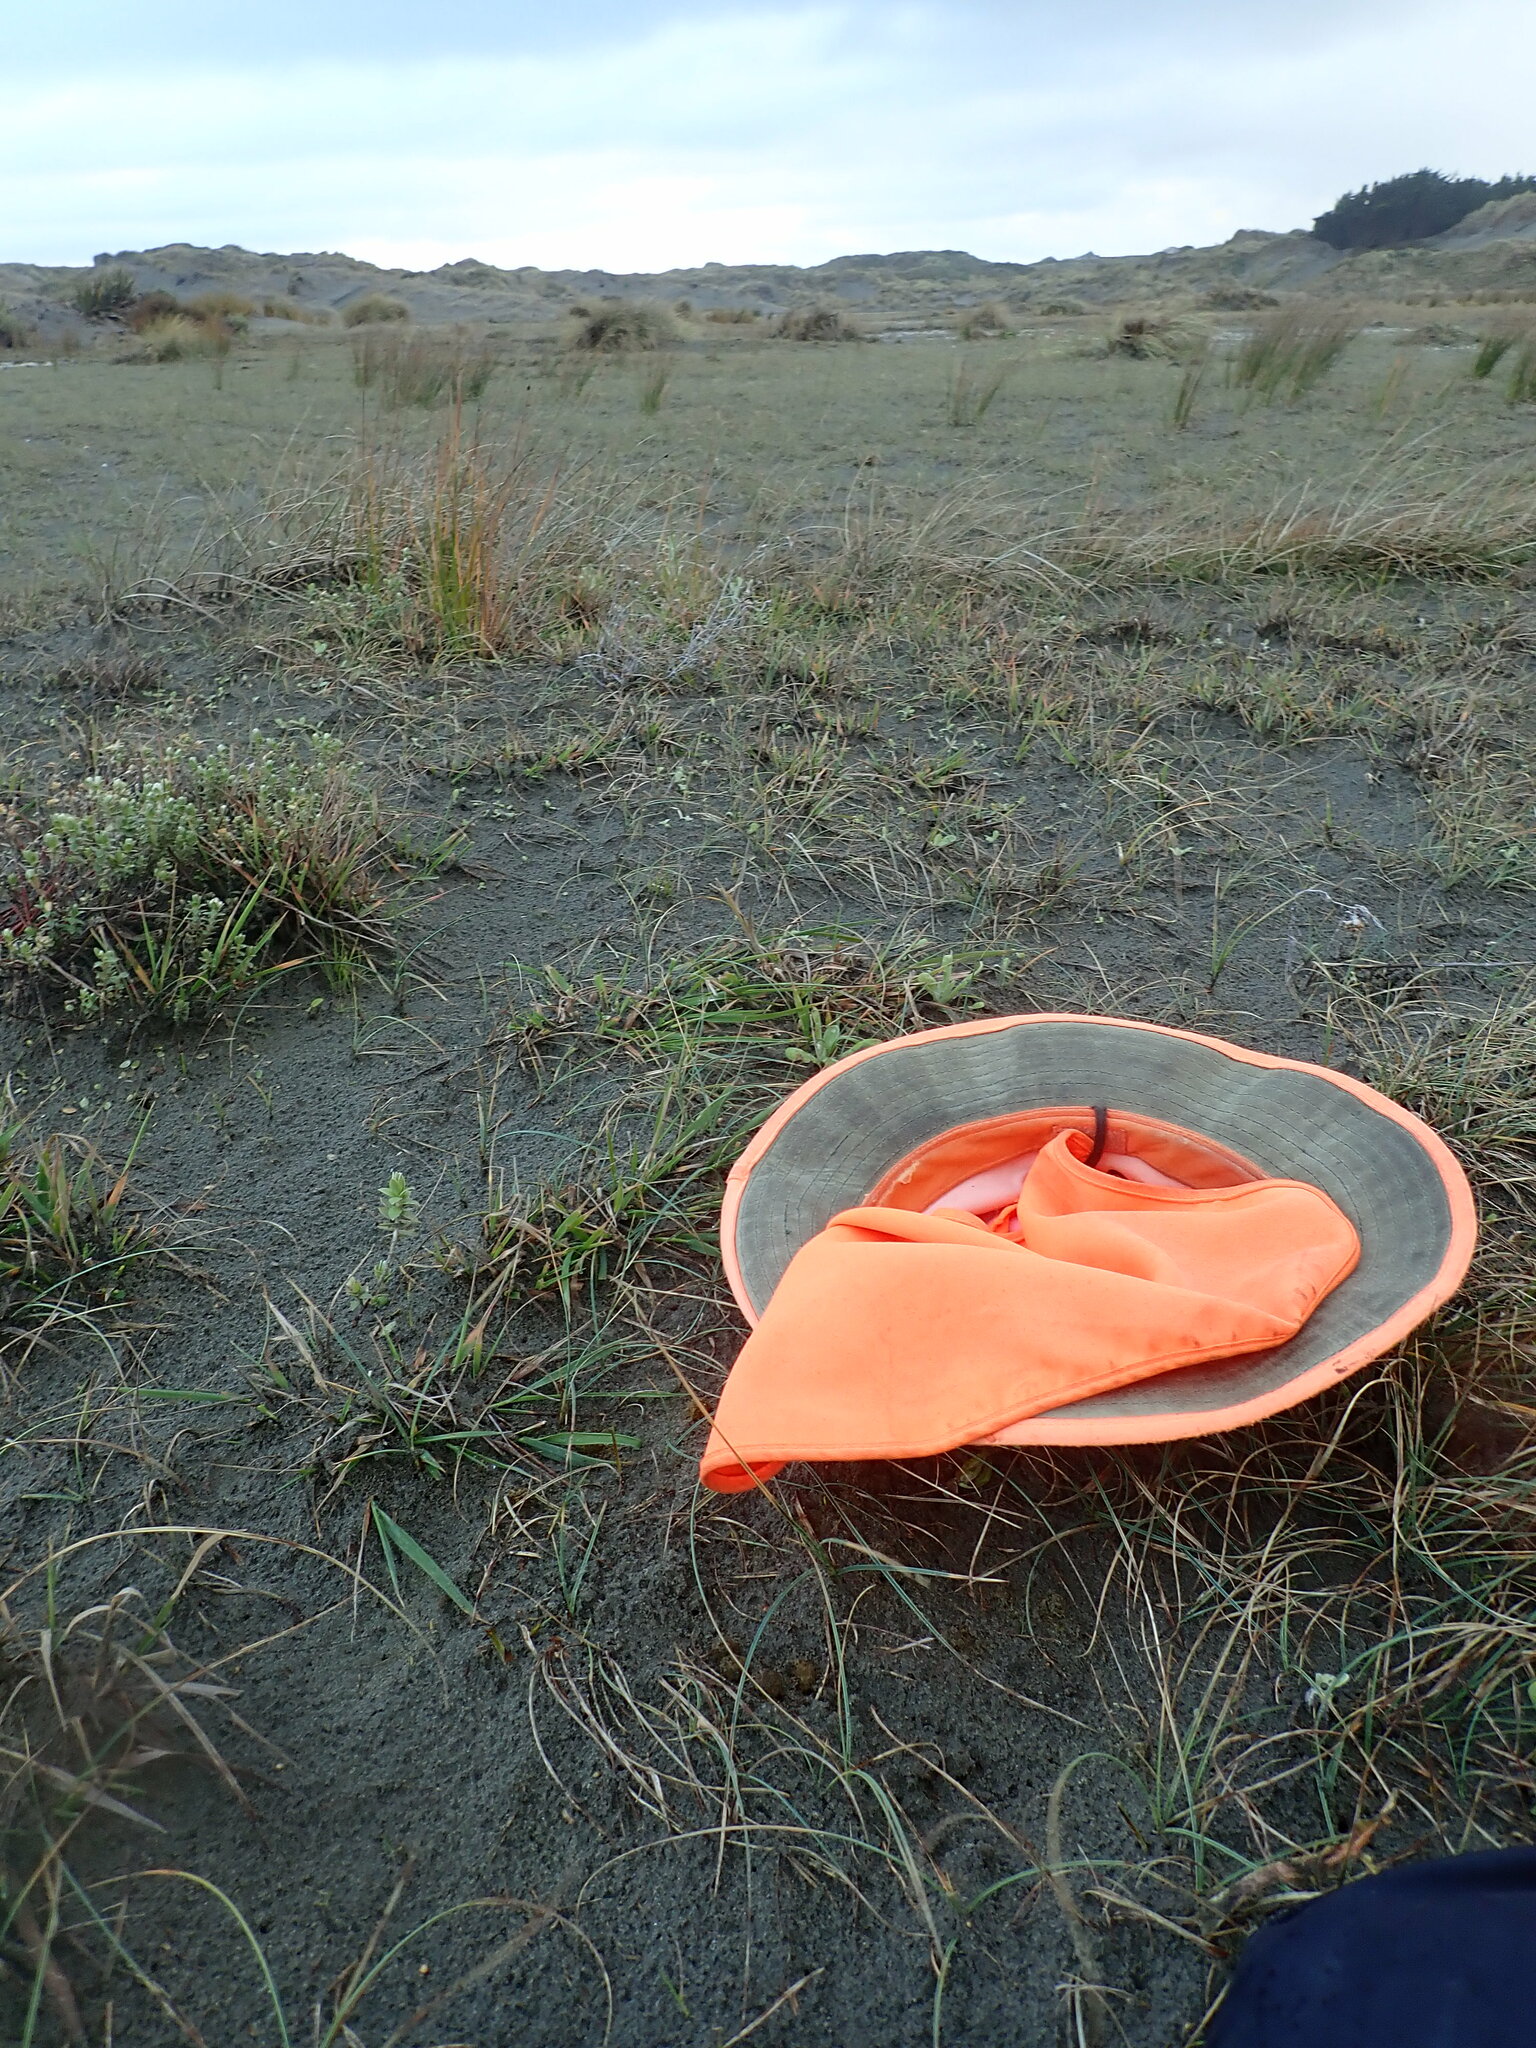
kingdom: Plantae
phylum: Tracheophyta
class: Magnoliopsida
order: Malvales
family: Thymelaeaceae
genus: Pimelea
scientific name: Pimelea villosa
